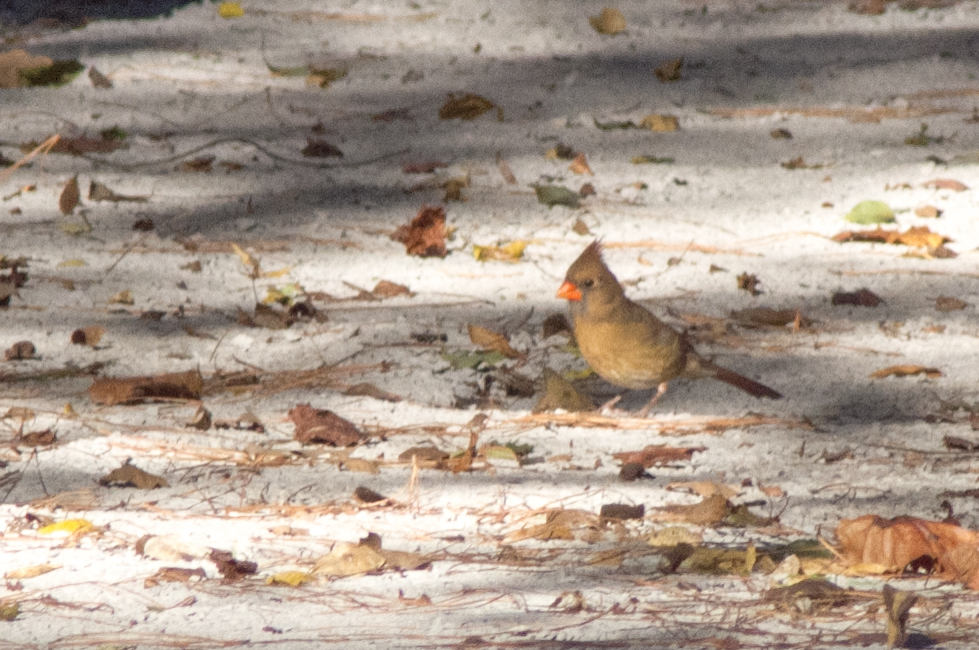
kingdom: Animalia
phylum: Chordata
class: Aves
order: Passeriformes
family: Cardinalidae
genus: Cardinalis
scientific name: Cardinalis cardinalis
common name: Northern cardinal
